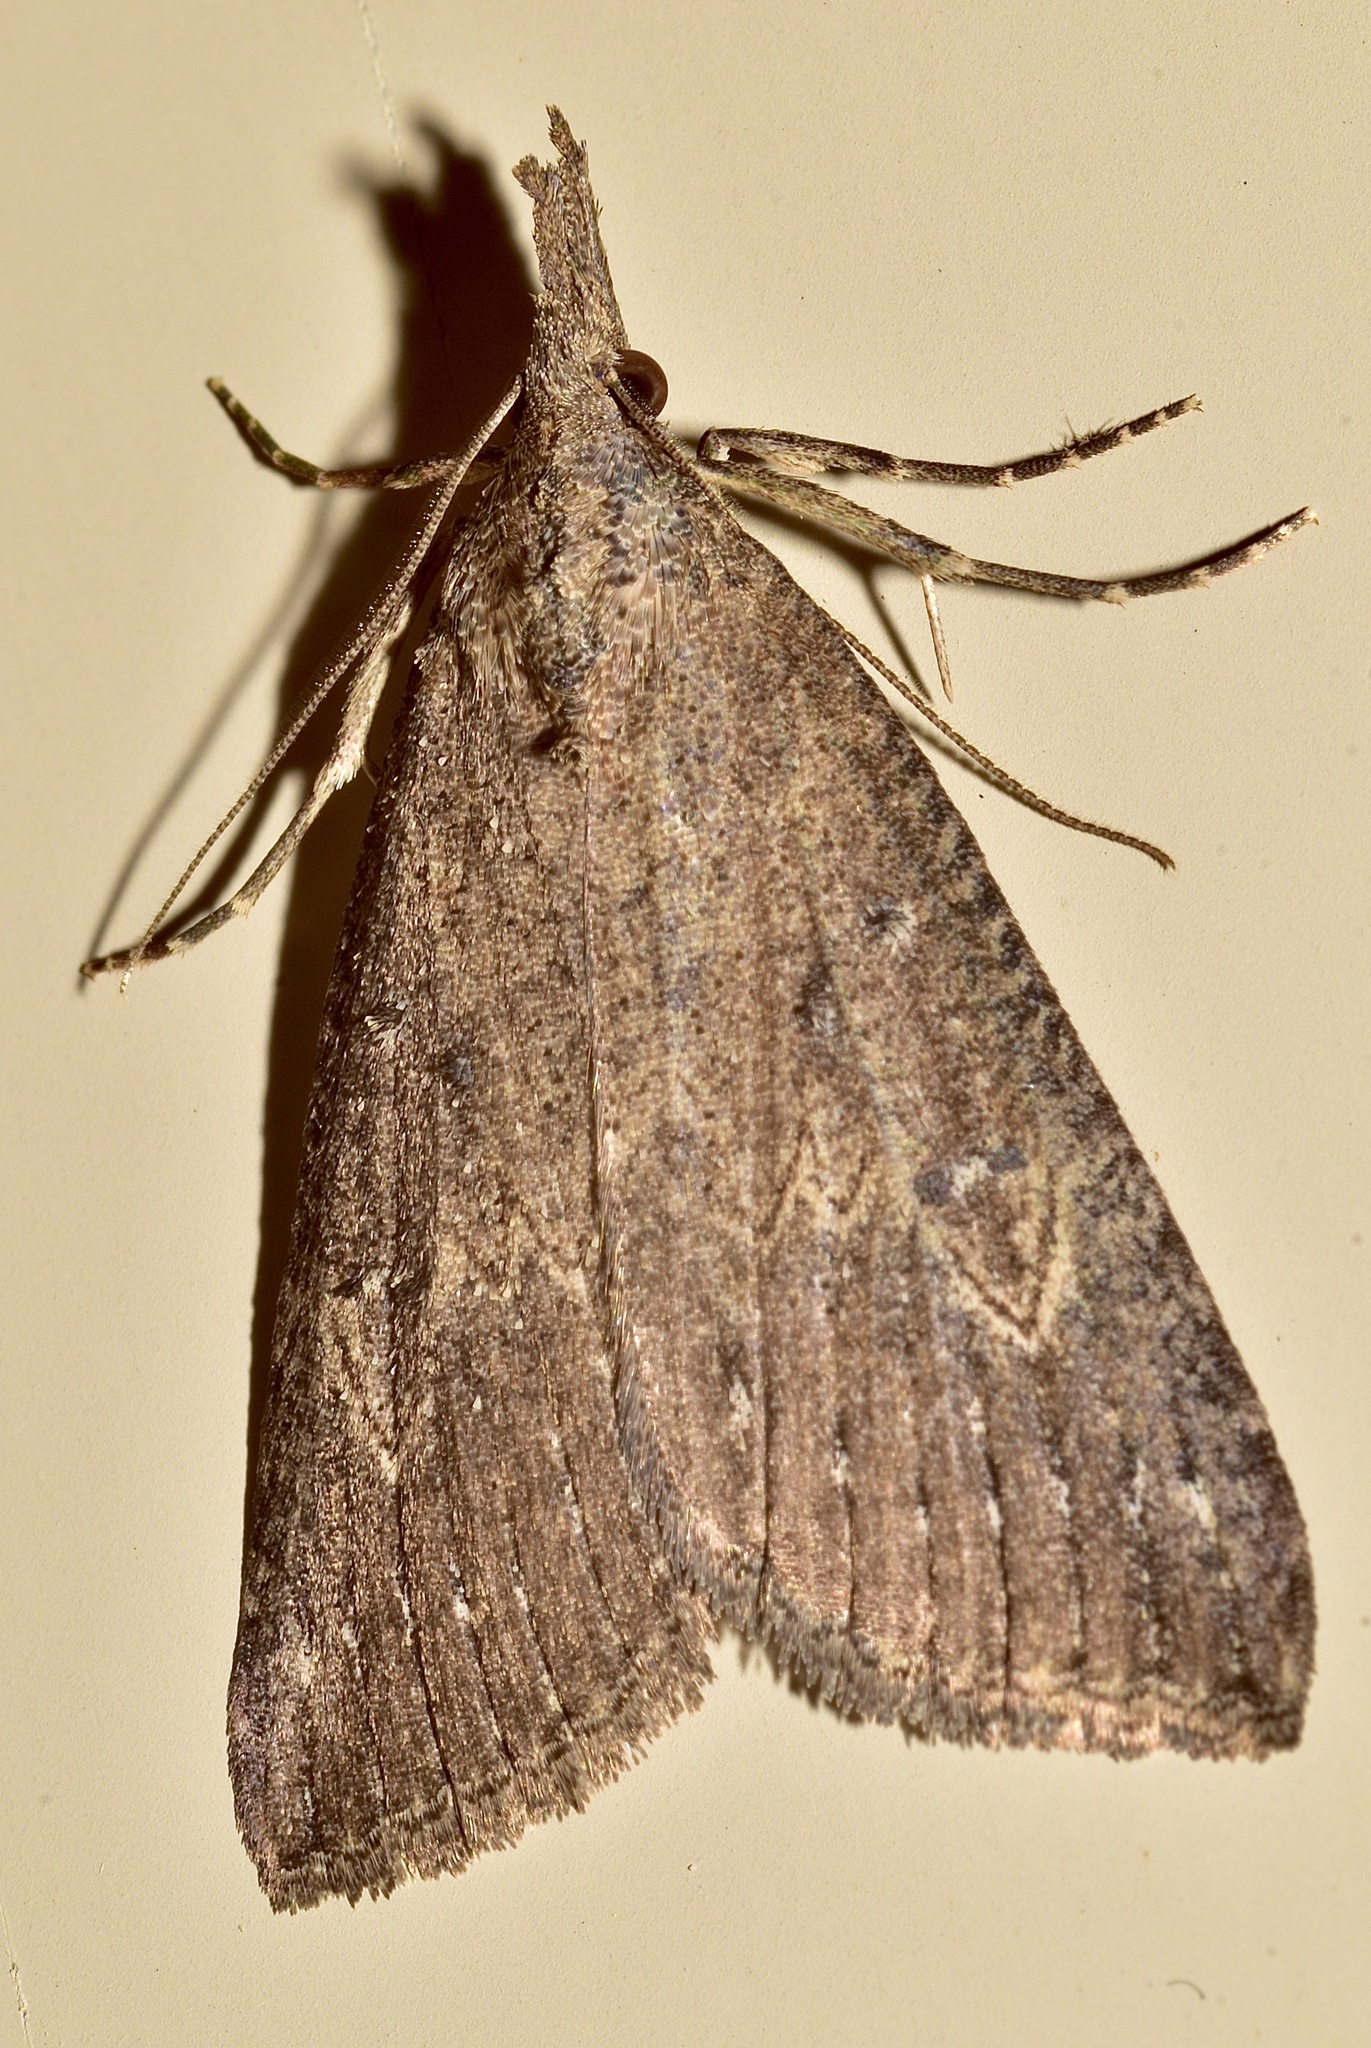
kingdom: Animalia
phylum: Arthropoda
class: Insecta
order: Lepidoptera
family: Erebidae
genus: Hypena
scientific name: Hypena humuli
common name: Hop vine snout
